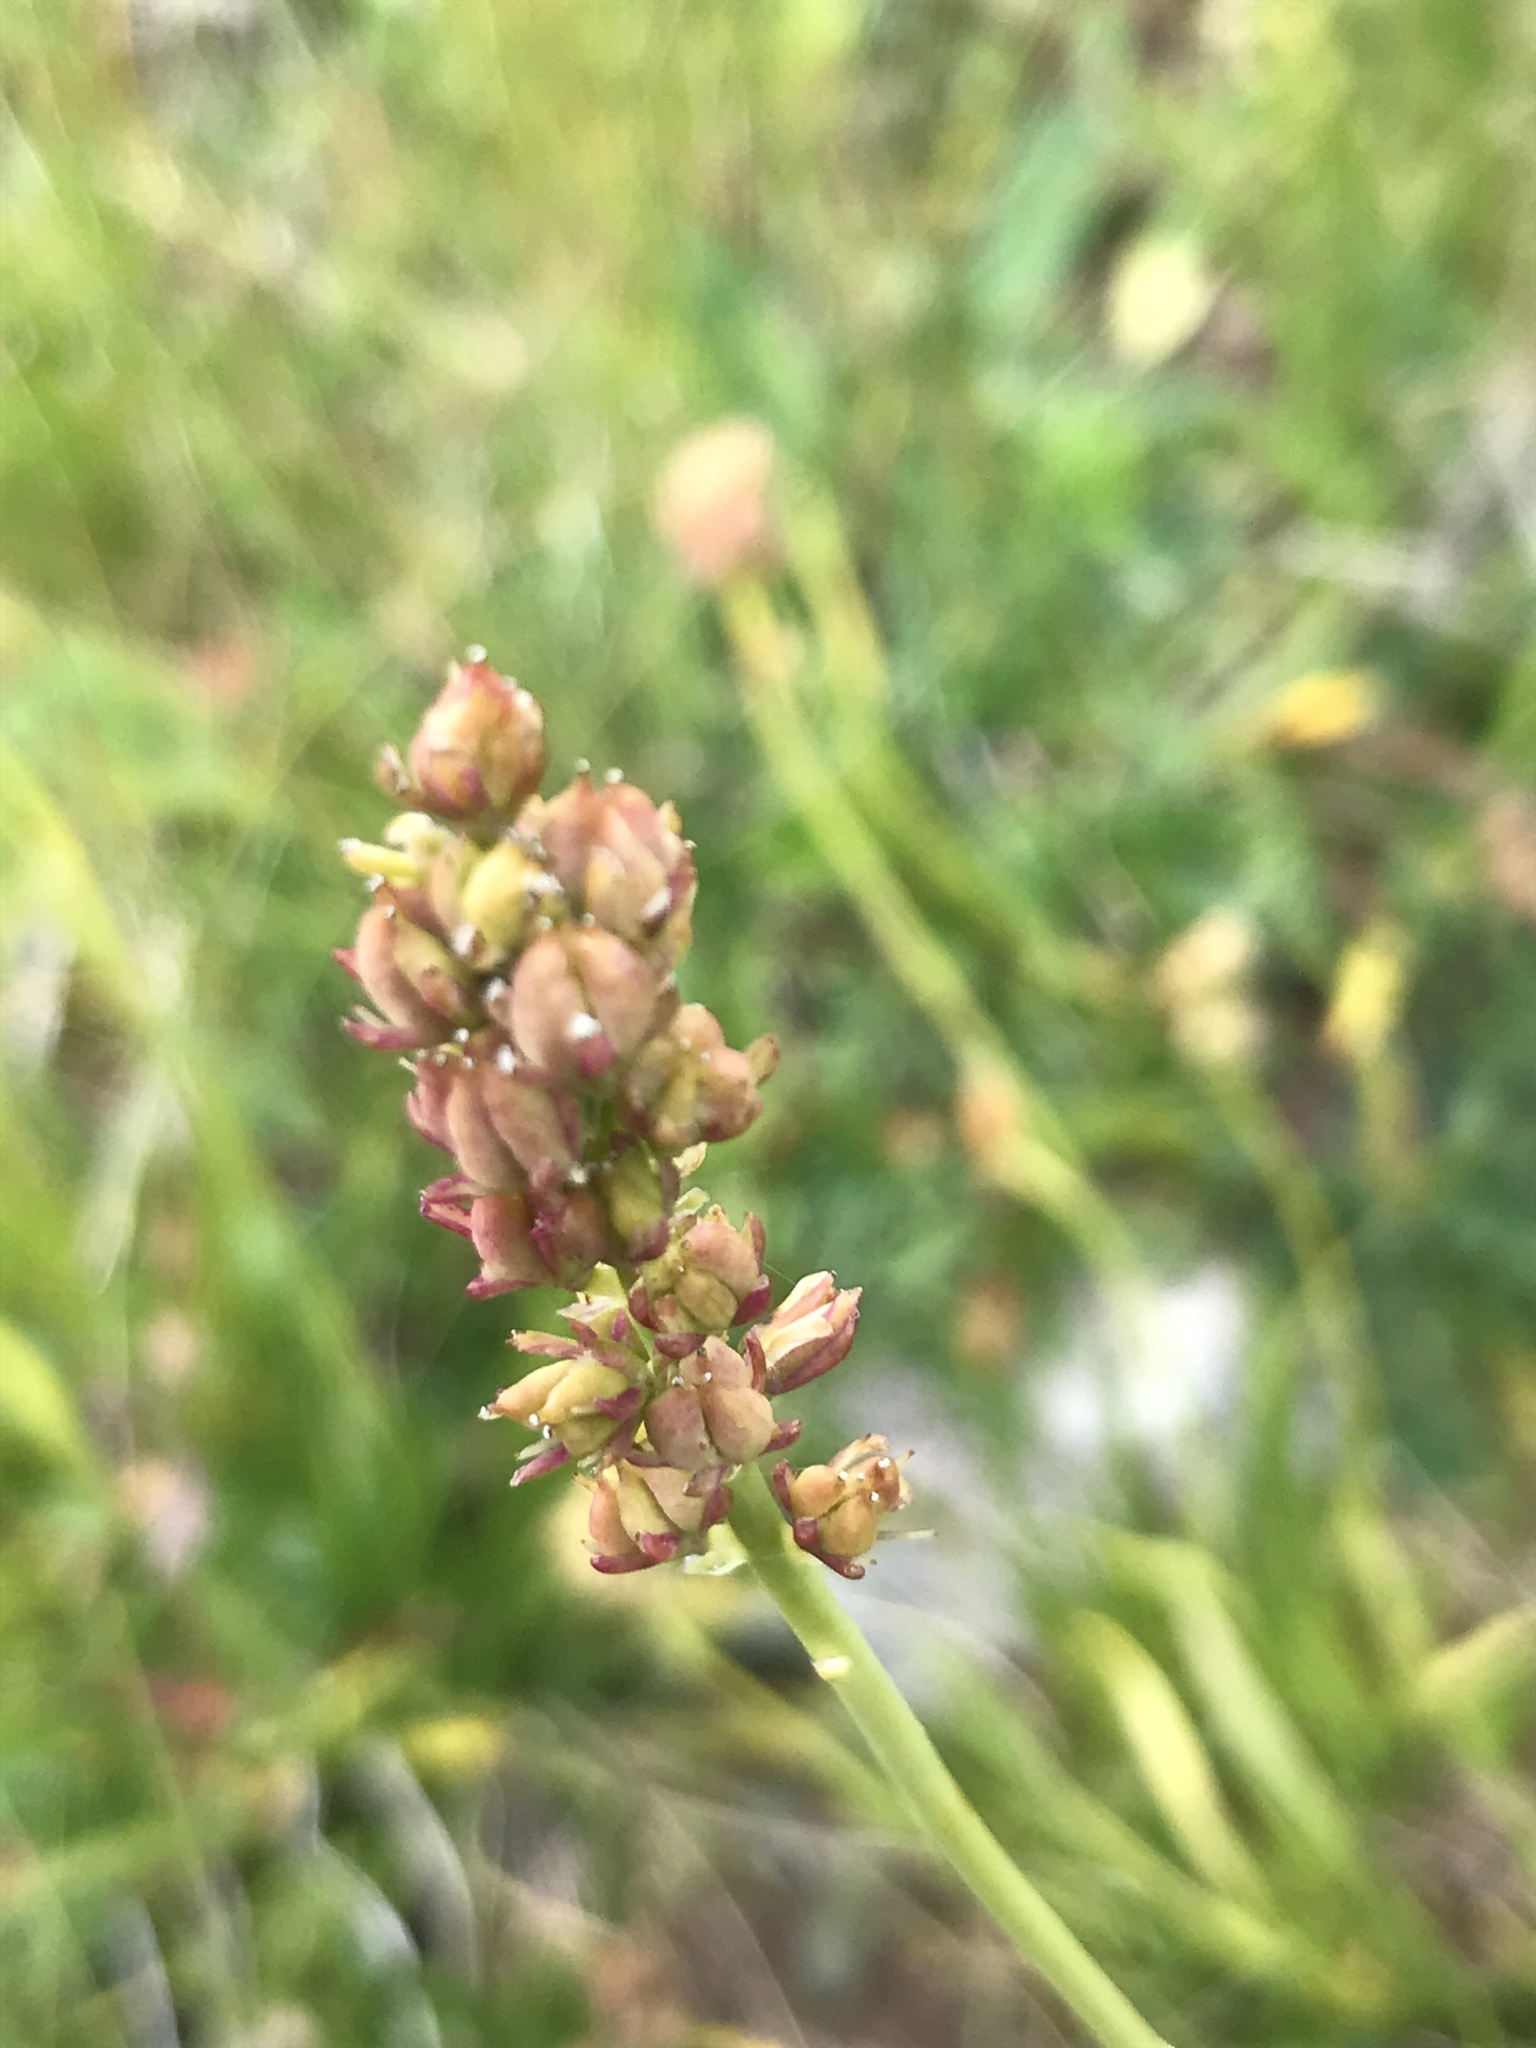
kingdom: Plantae
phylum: Tracheophyta
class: Liliopsida
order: Alismatales
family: Tofieldiaceae
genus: Tofieldia
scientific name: Tofieldia calyculata
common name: German-asphodel
